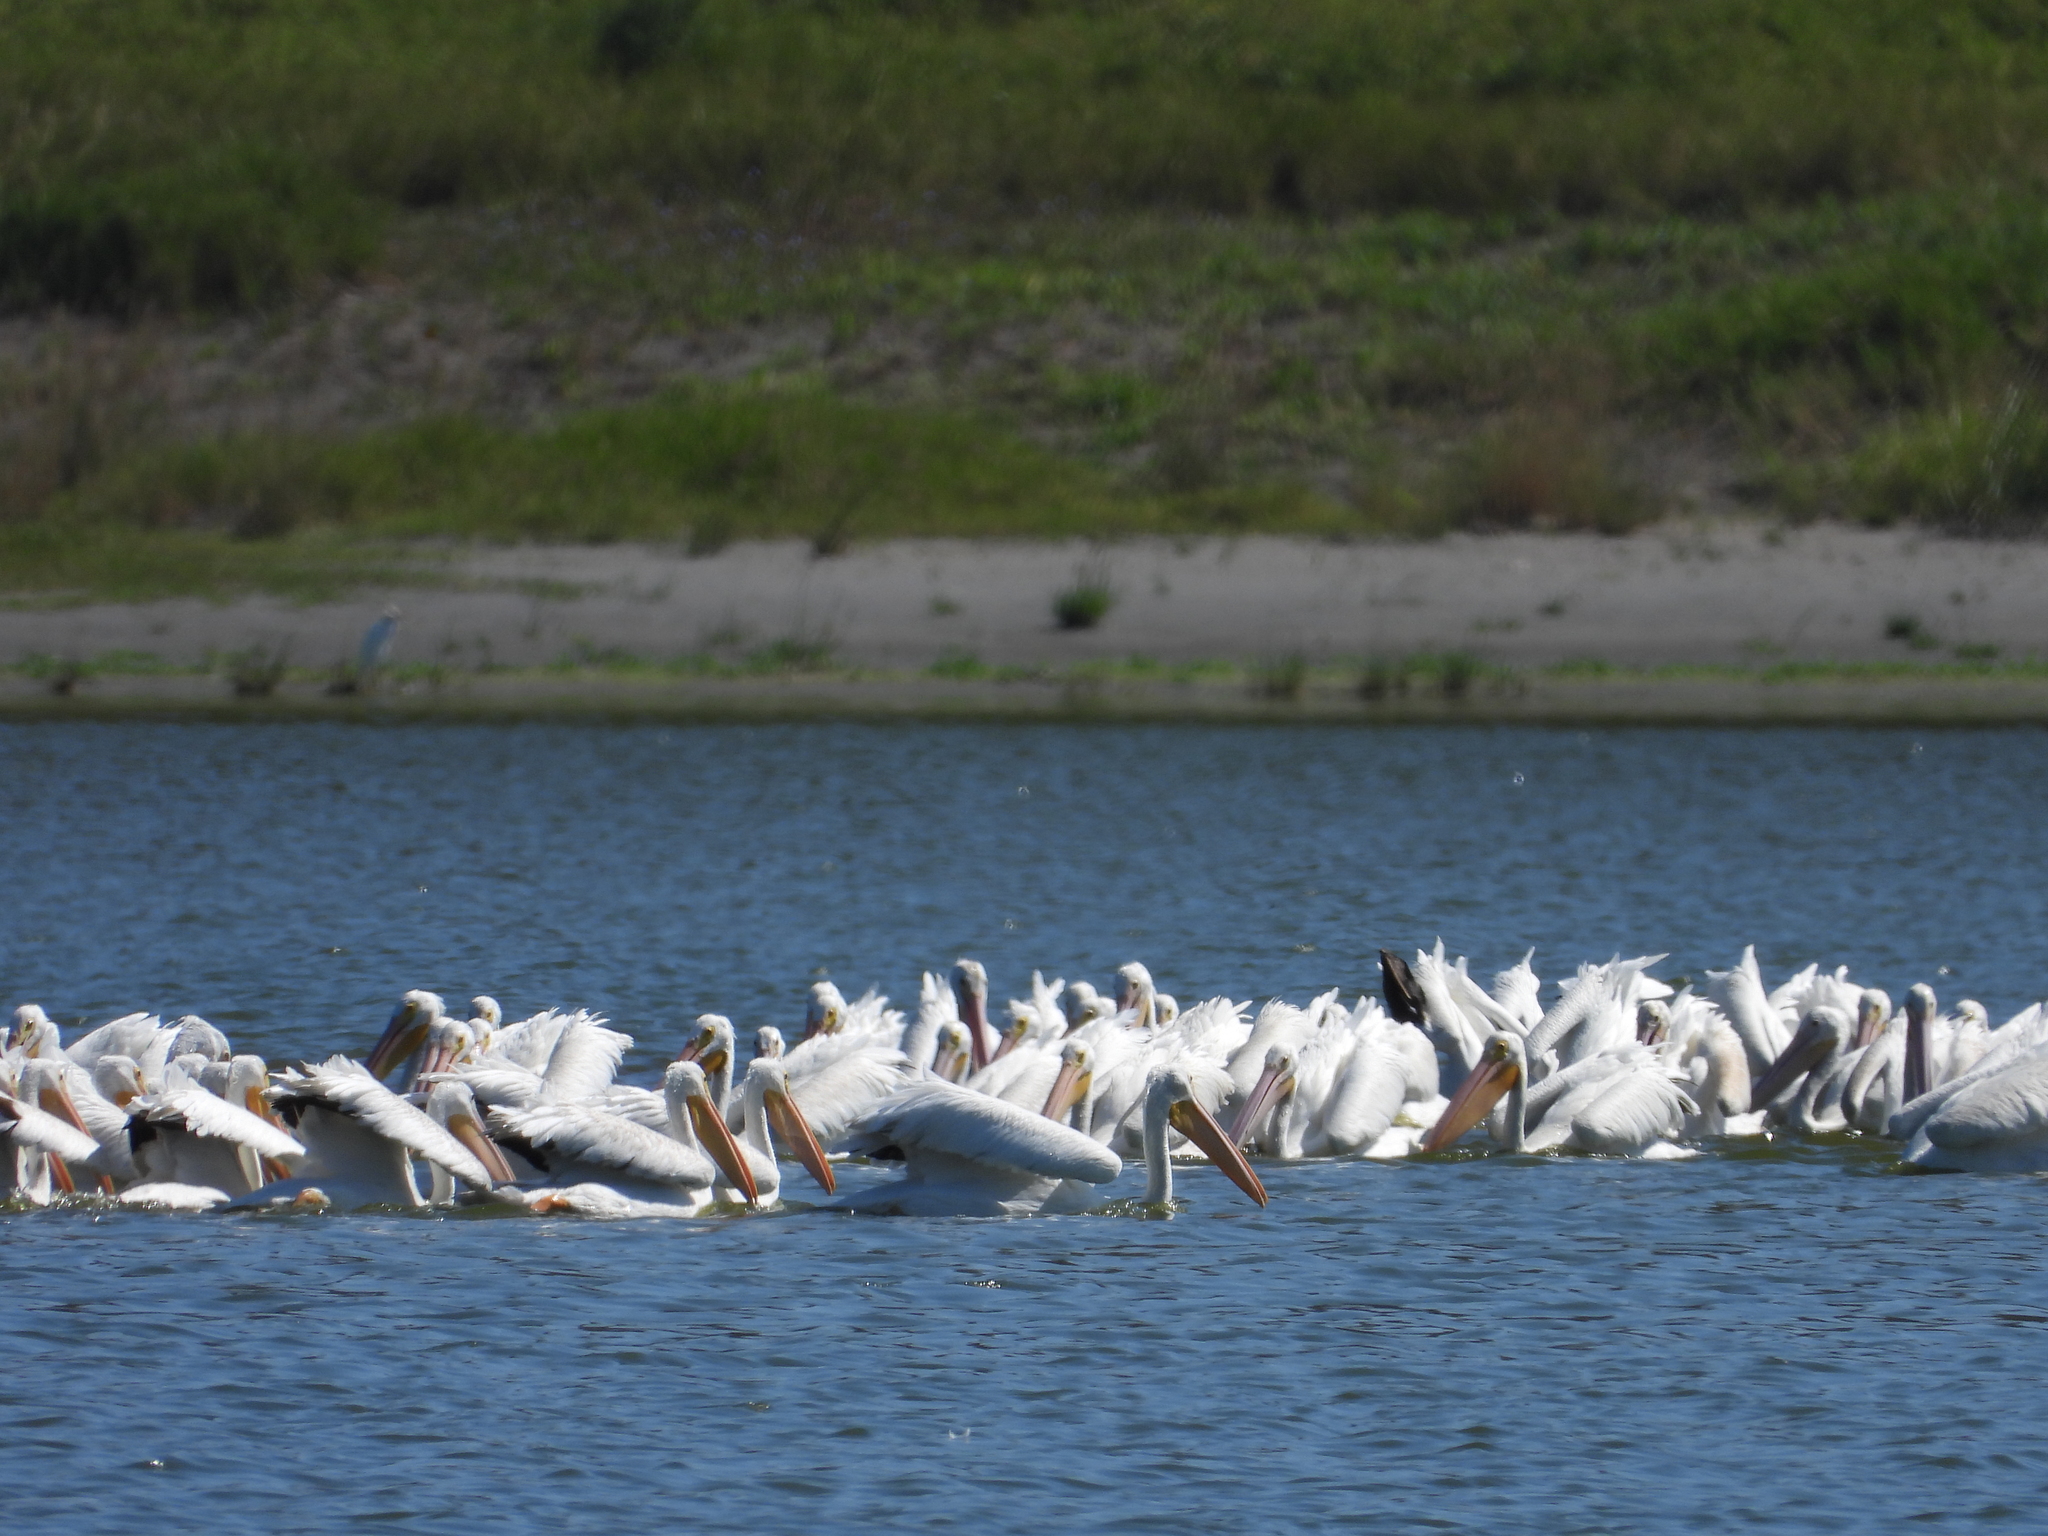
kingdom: Animalia
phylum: Chordata
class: Aves
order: Pelecaniformes
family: Pelecanidae
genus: Pelecanus
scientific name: Pelecanus erythrorhynchos
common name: American white pelican
